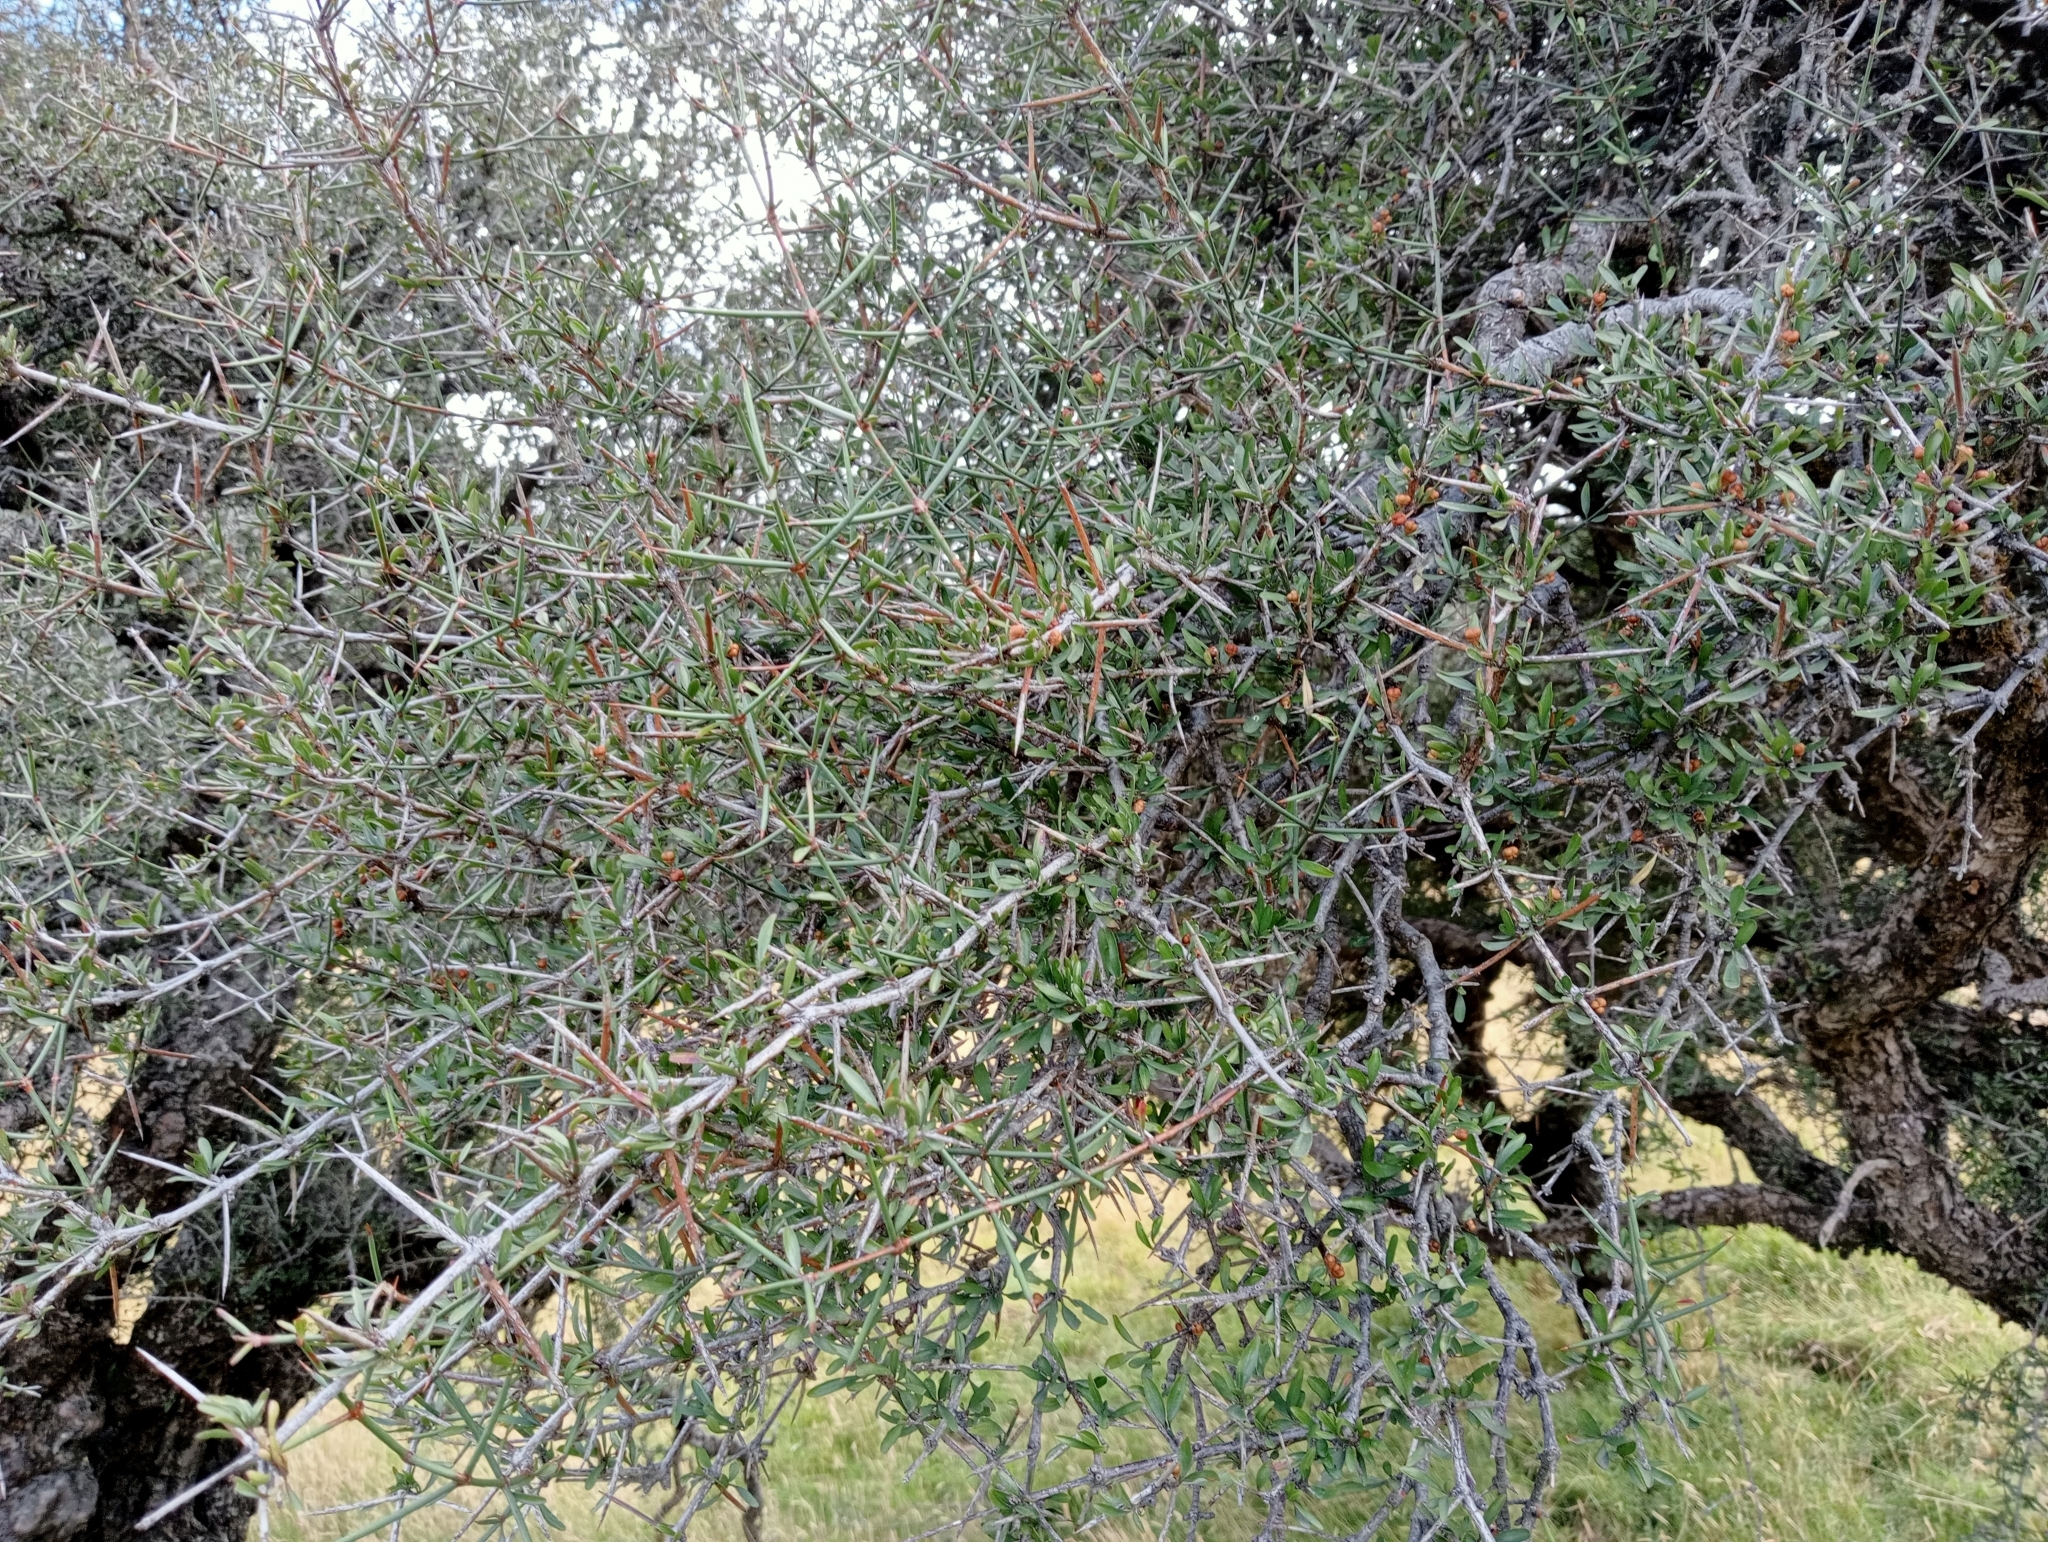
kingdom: Plantae
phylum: Tracheophyta
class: Magnoliopsida
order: Rosales
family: Rhamnaceae
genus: Discaria
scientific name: Discaria toumatou
